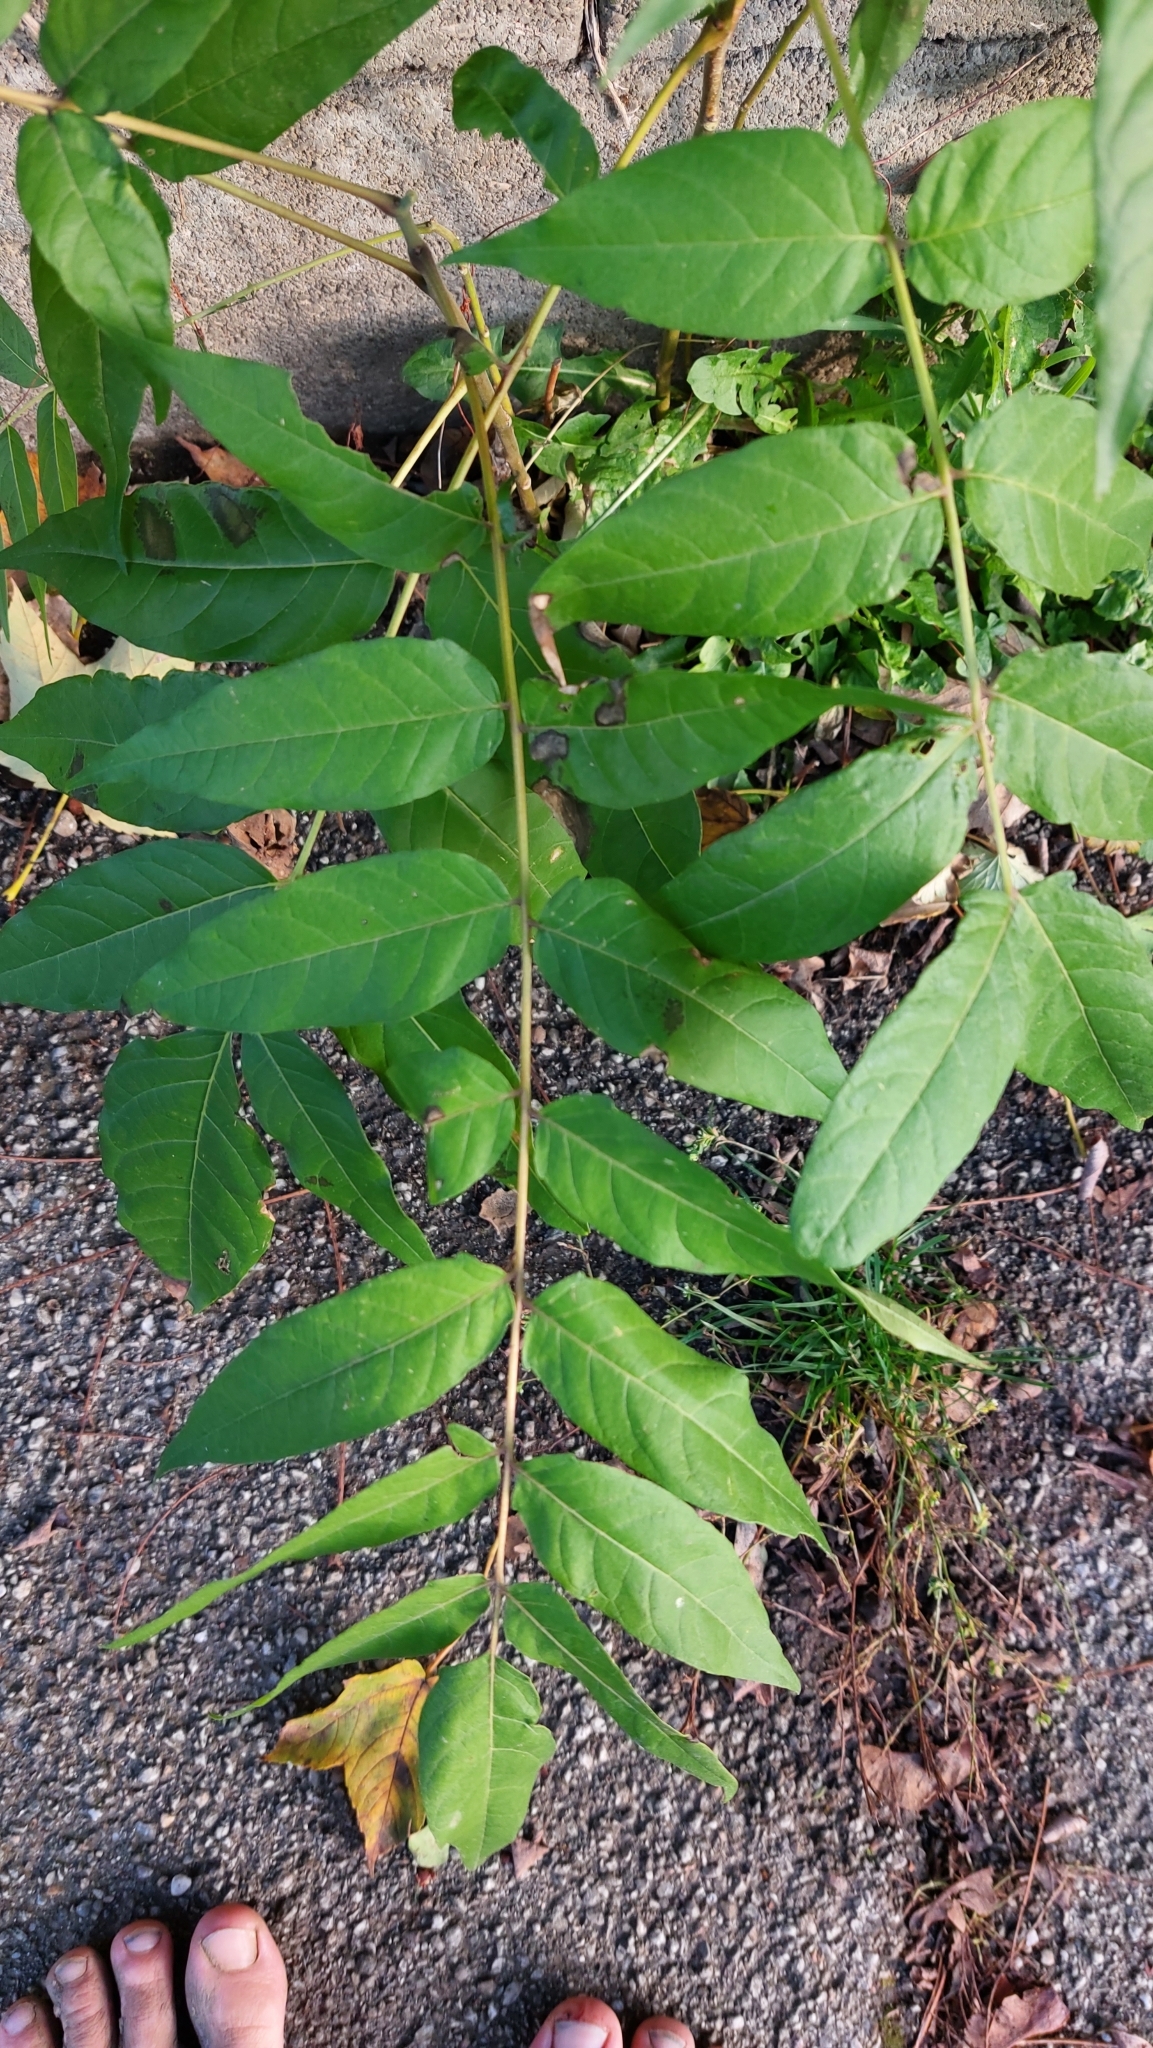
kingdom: Plantae
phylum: Tracheophyta
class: Magnoliopsida
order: Sapindales
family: Simaroubaceae
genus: Ailanthus
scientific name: Ailanthus altissima
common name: Tree-of-heaven
